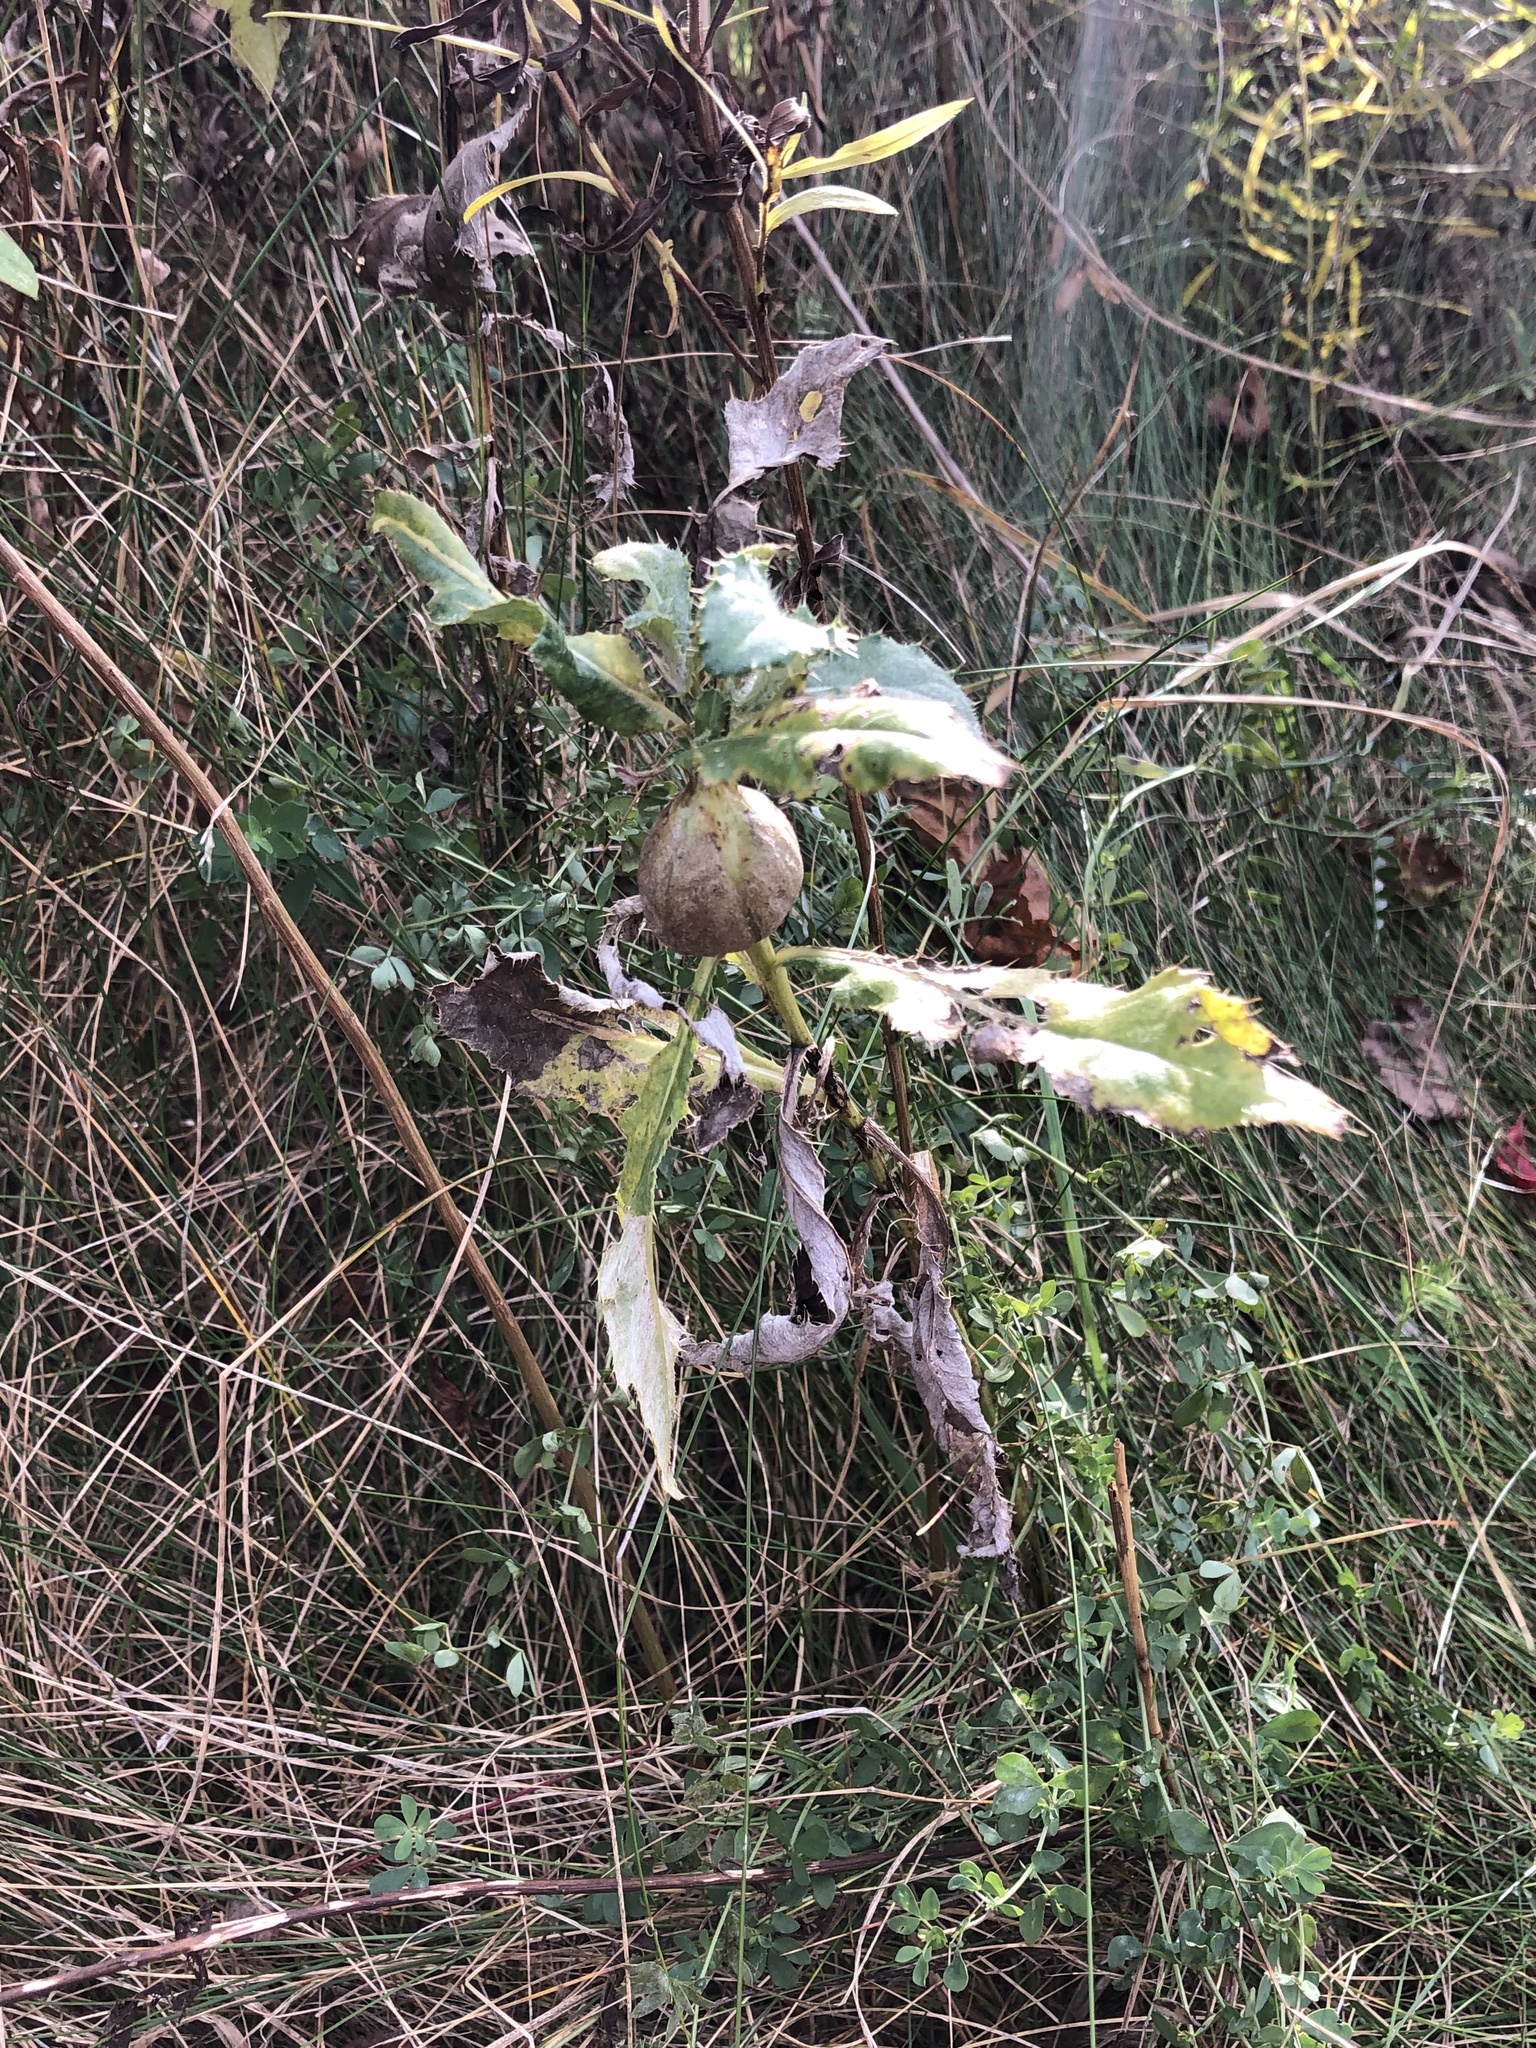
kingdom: Plantae
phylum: Tracheophyta
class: Magnoliopsida
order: Asterales
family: Asteraceae
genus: Cirsium
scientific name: Cirsium arvense
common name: Creeping thistle
